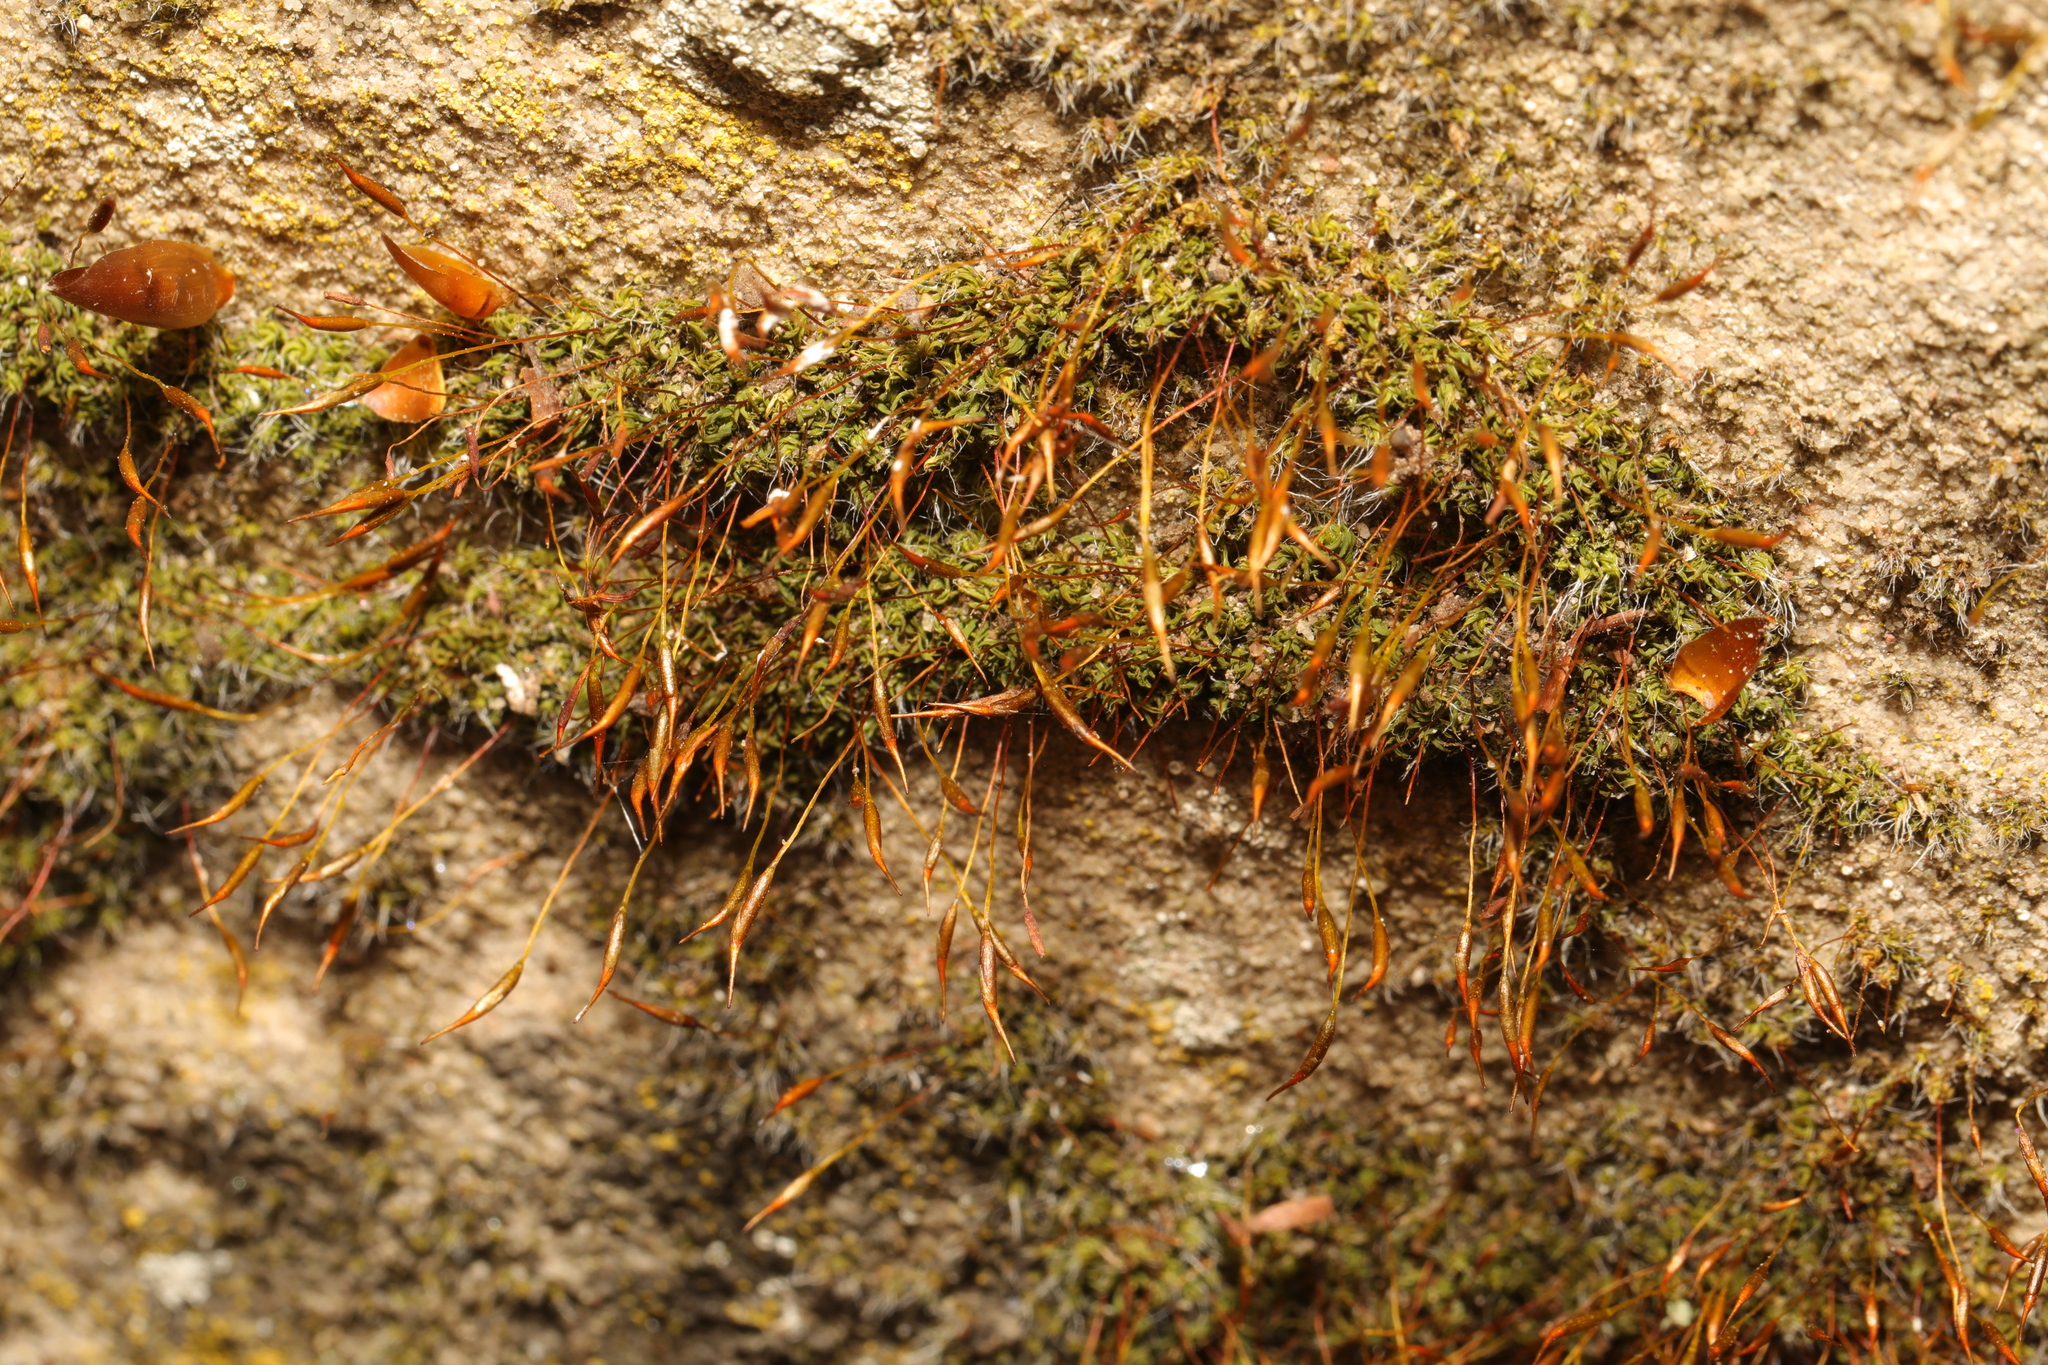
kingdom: Plantae
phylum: Bryophyta
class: Bryopsida
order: Pottiales
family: Pottiaceae
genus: Tortula
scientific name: Tortula muralis
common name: Wall screw-moss
